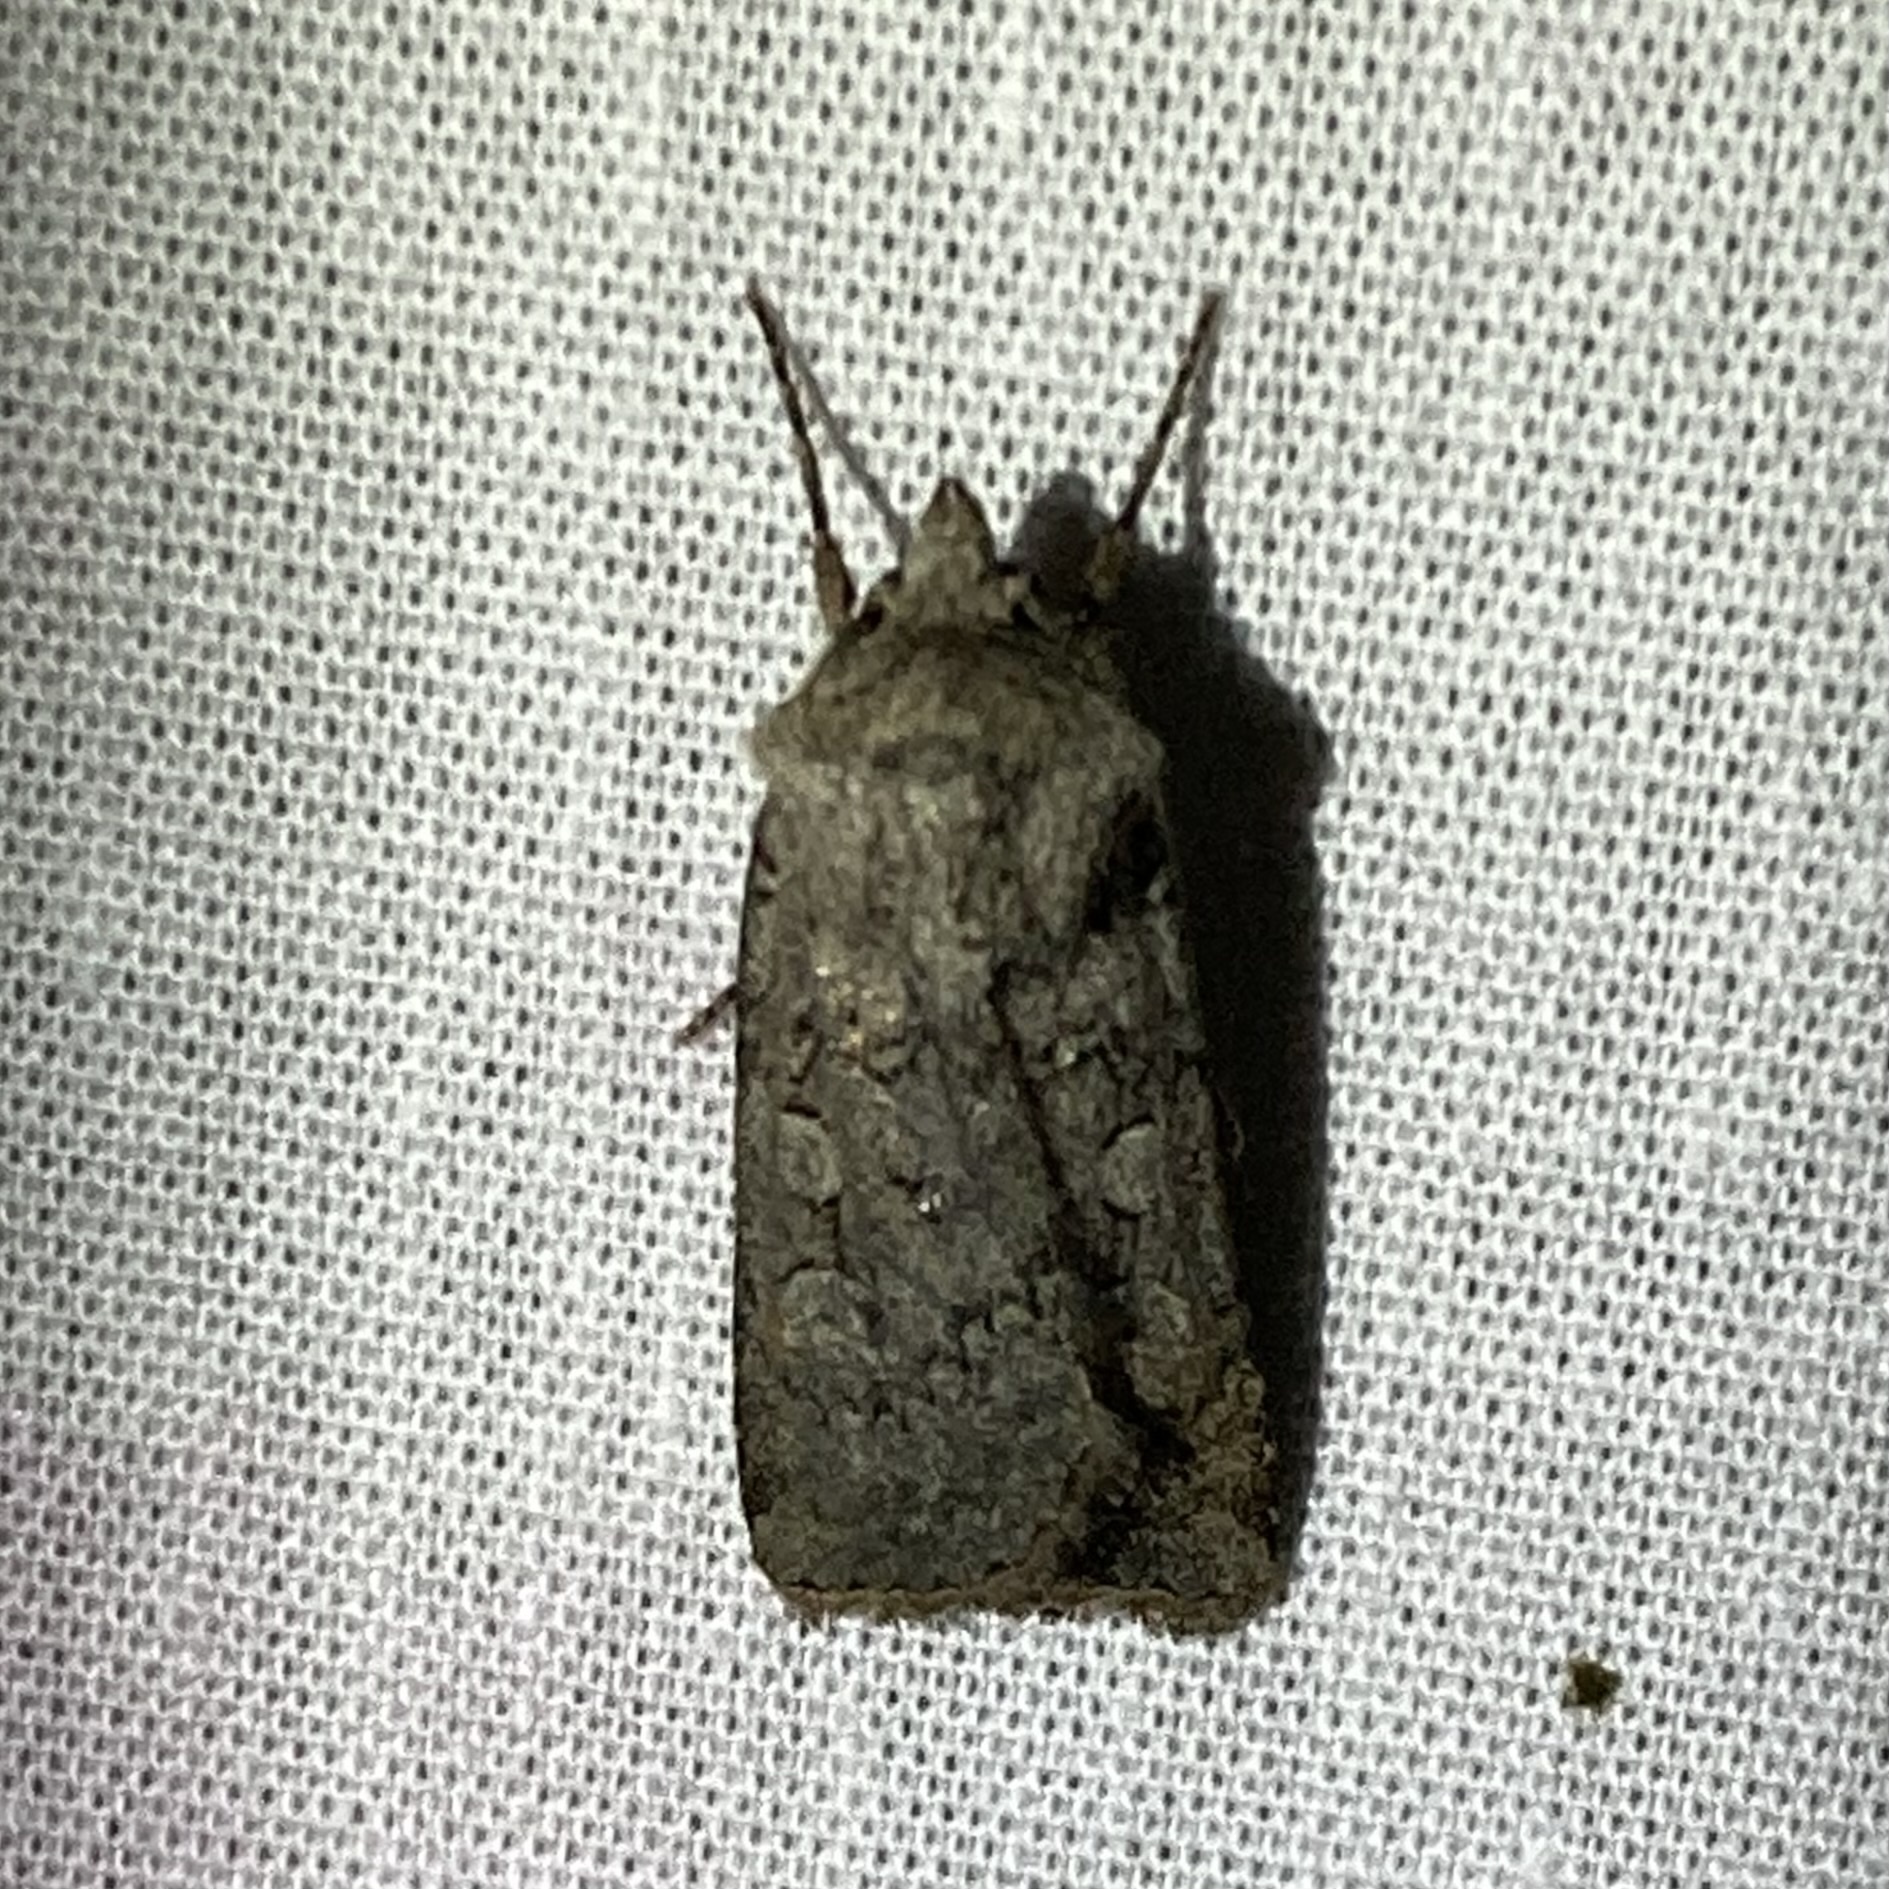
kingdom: Animalia
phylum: Arthropoda
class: Insecta
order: Lepidoptera
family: Noctuidae
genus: Euxoa
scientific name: Euxoa messoria
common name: Darksided cutworm
